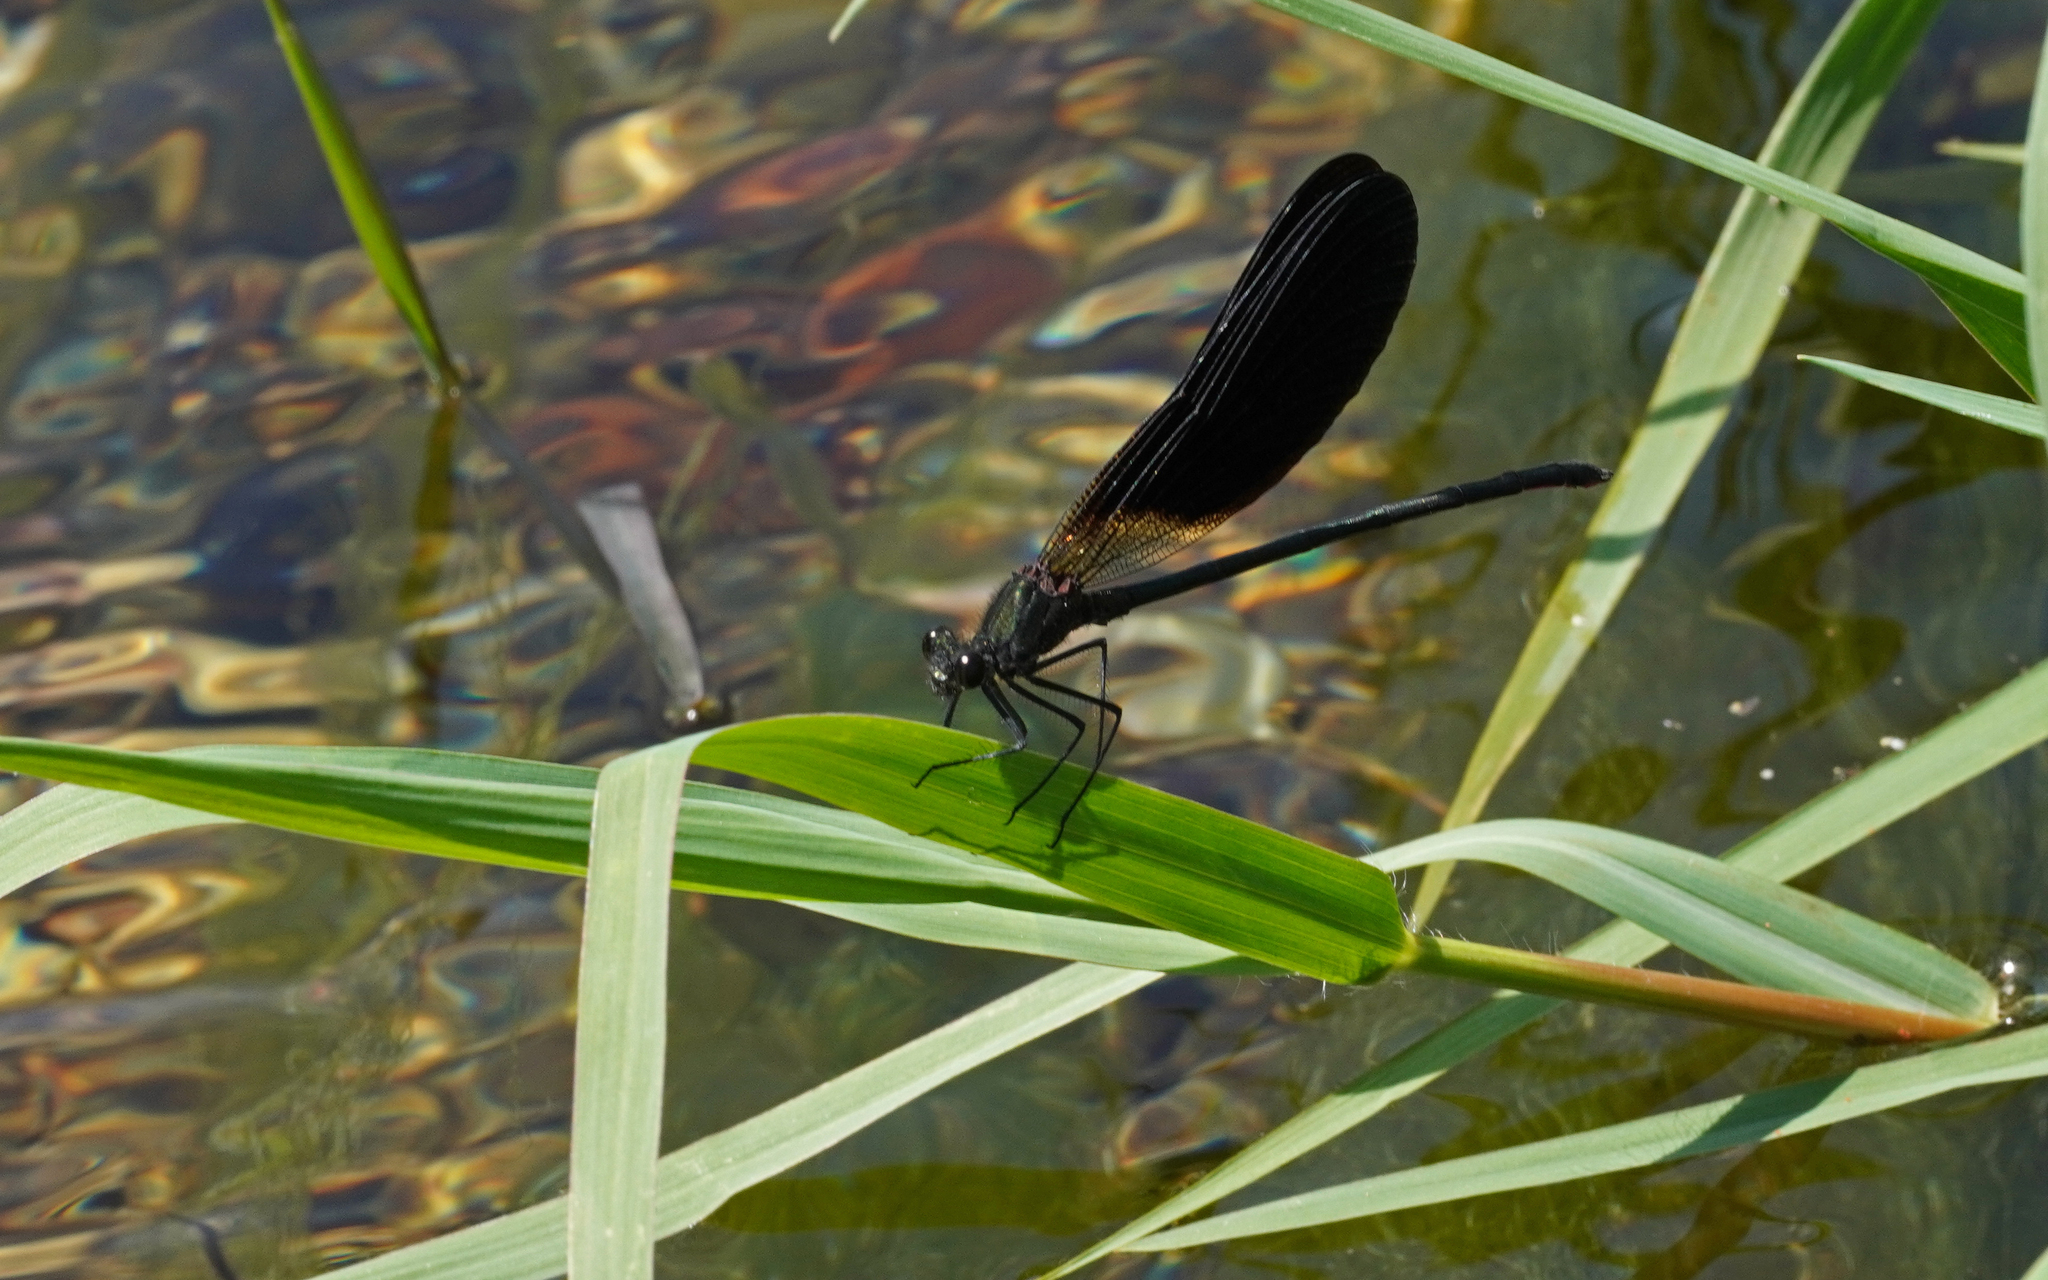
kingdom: Animalia
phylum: Arthropoda
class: Insecta
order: Odonata
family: Calopterygidae
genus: Calopteryx
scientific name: Calopteryx haemorrhoidalis
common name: Copper demoiselle
